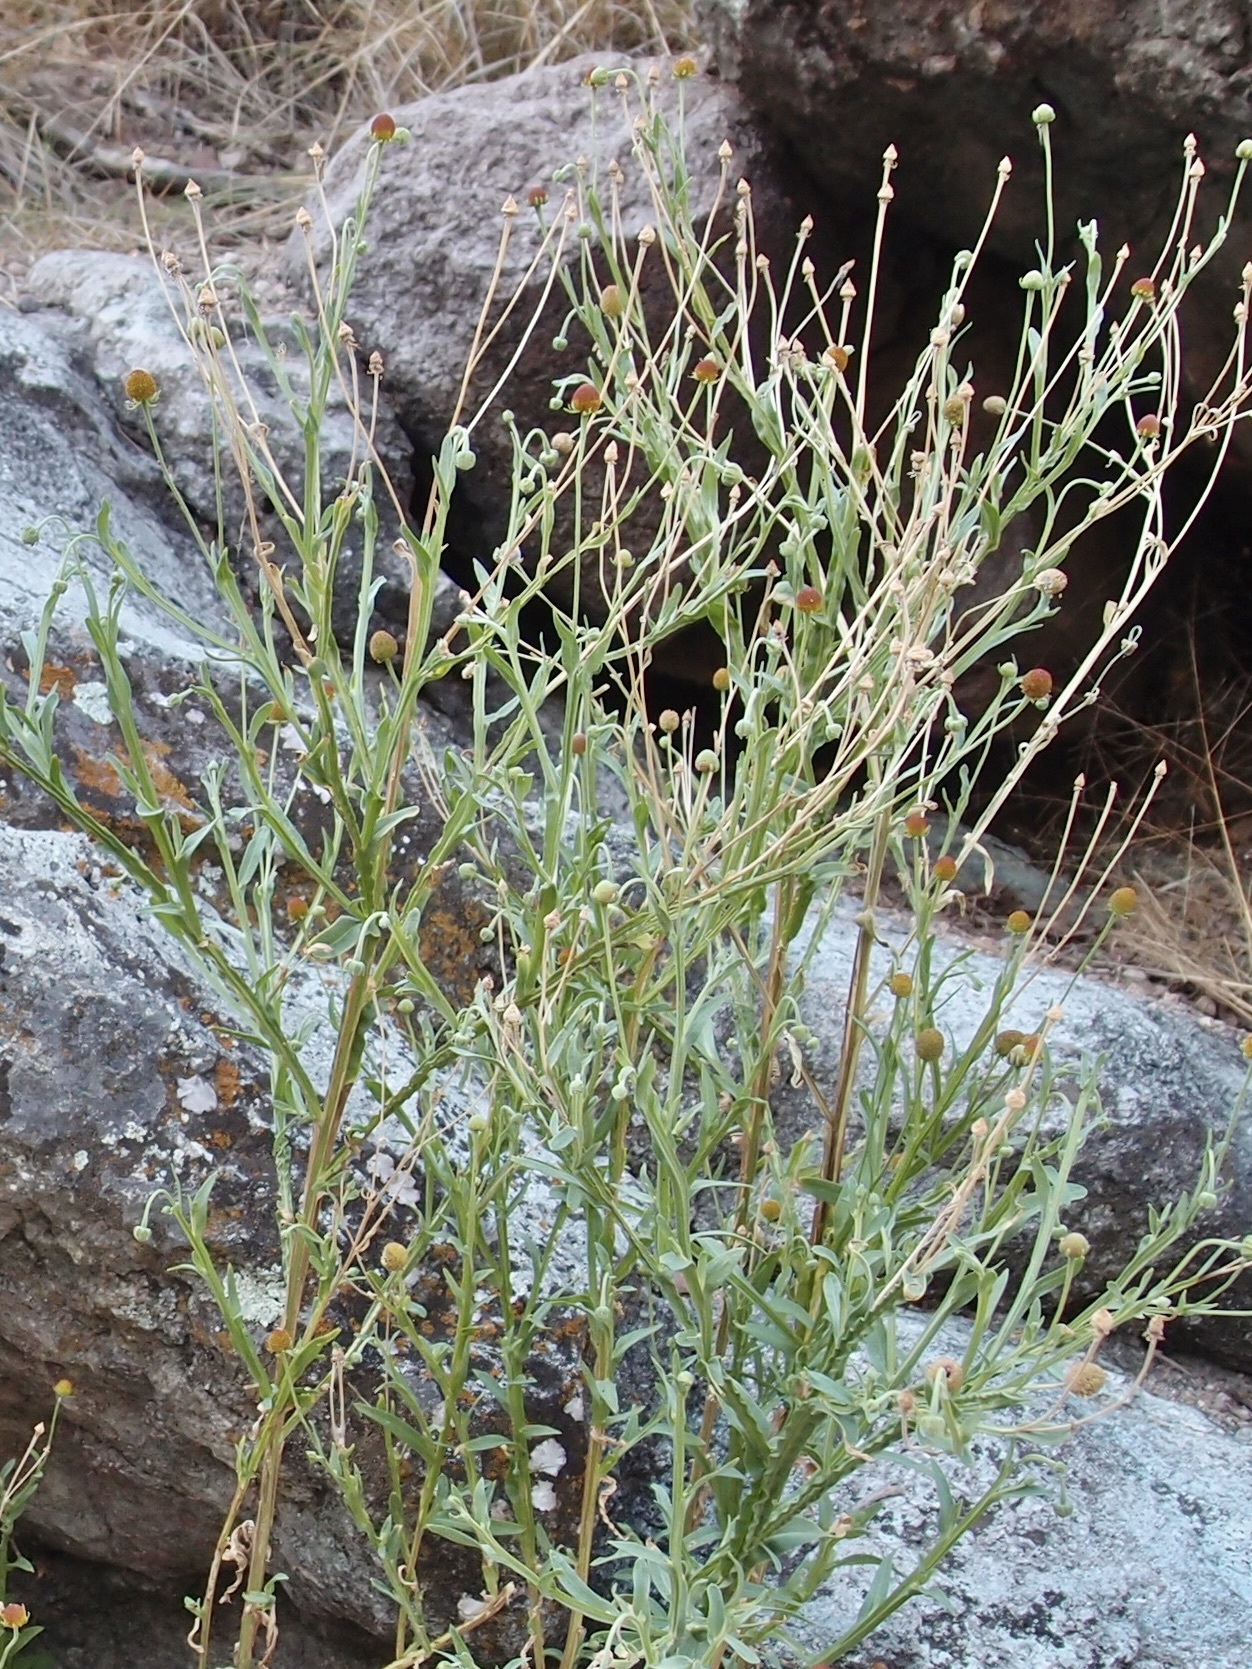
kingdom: Plantae
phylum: Tracheophyta
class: Magnoliopsida
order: Asterales
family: Asteraceae
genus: Helenium
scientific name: Helenium thurberi
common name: Thurber's sneezeweed
